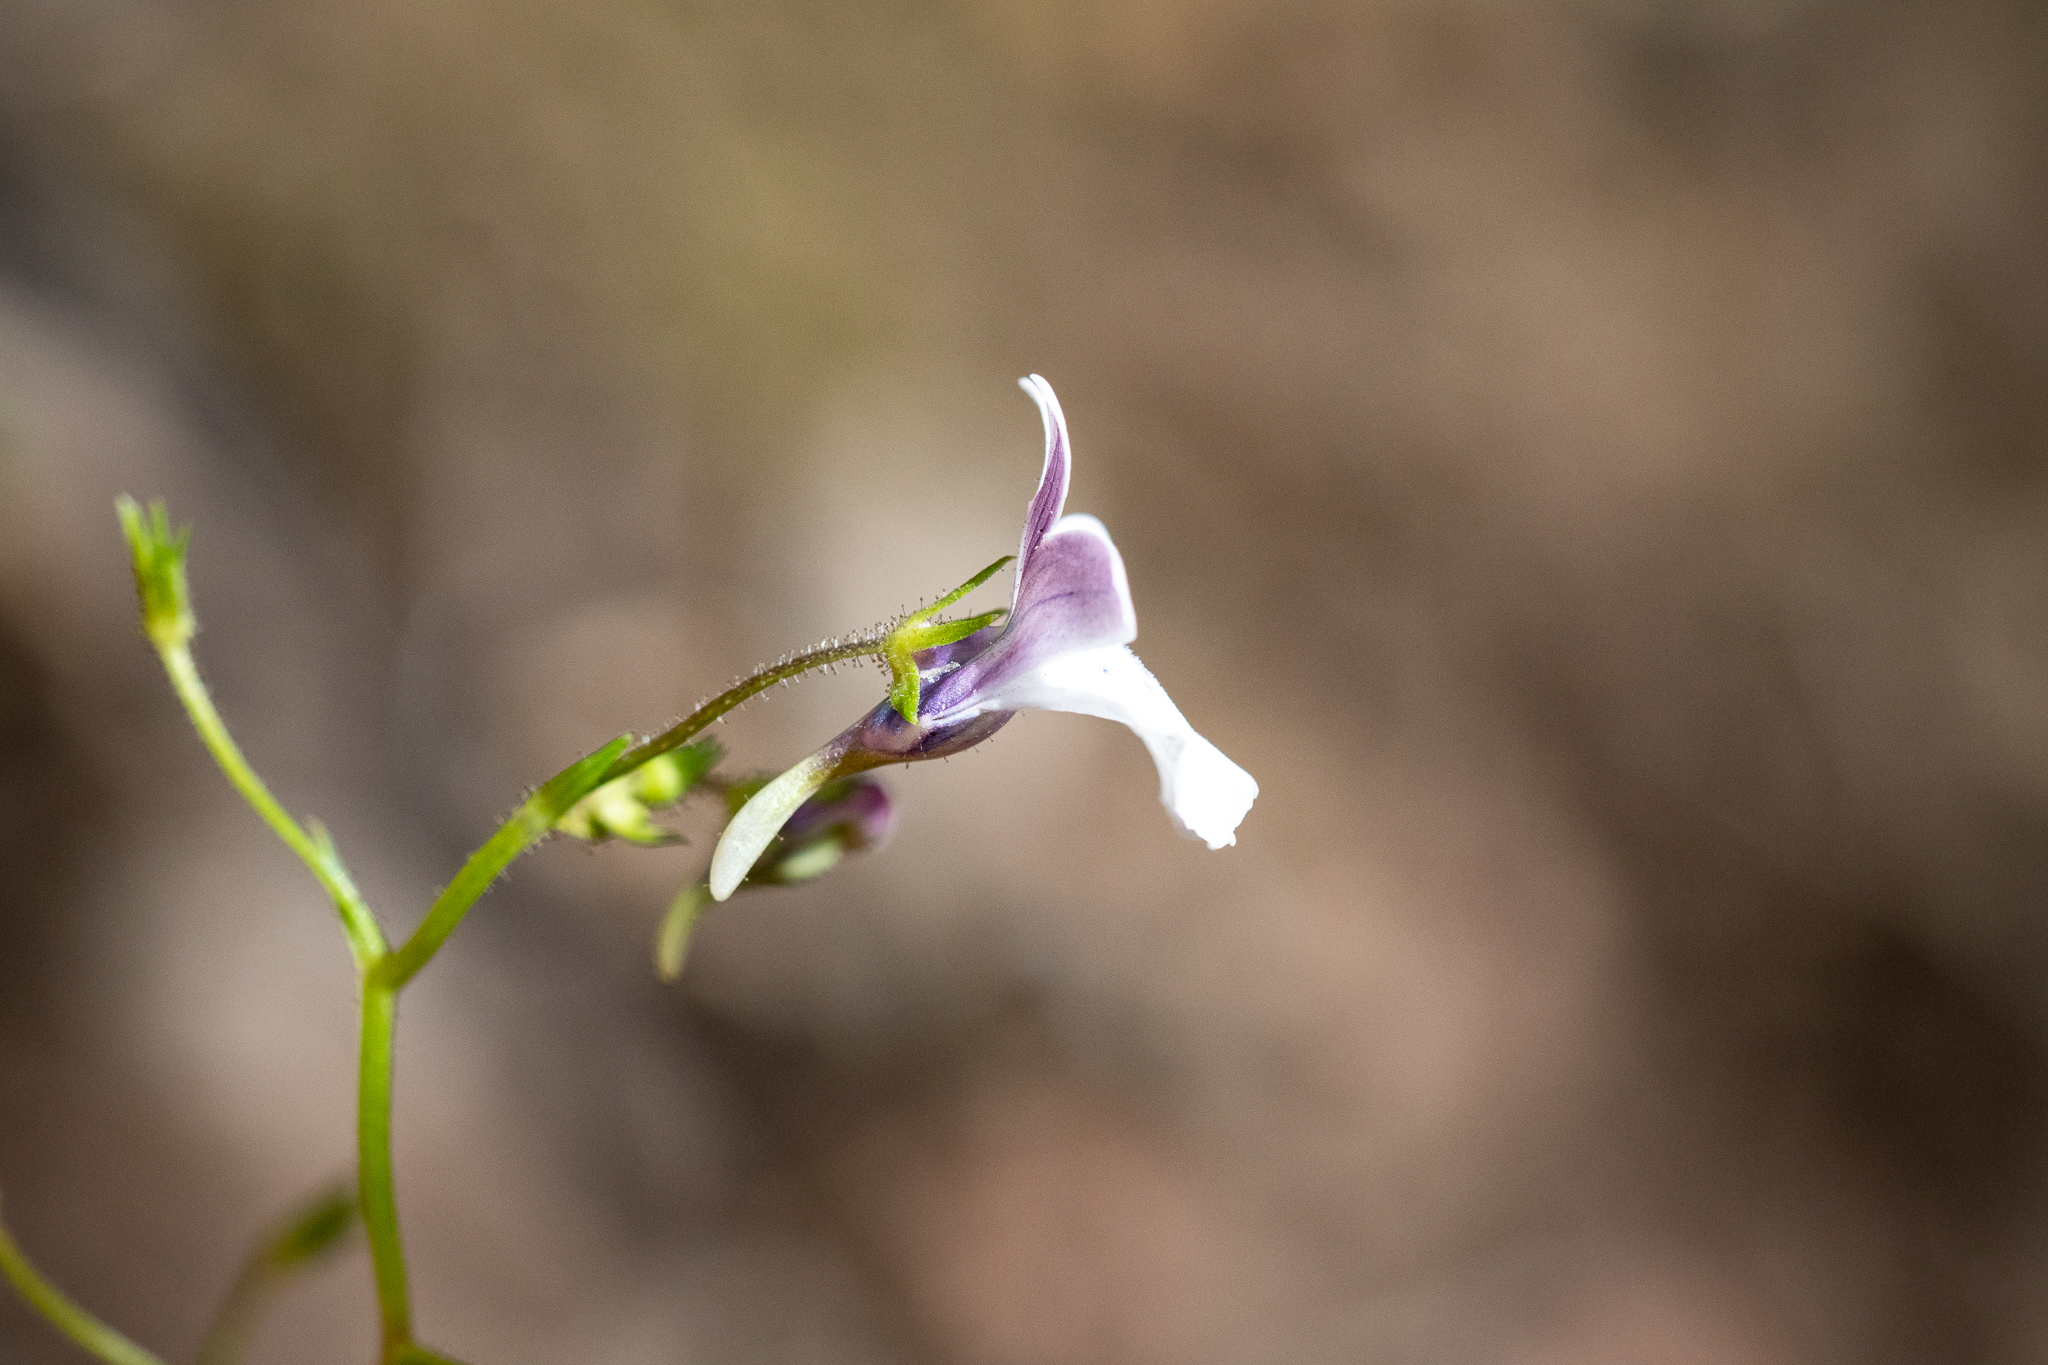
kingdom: Plantae
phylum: Tracheophyta
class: Magnoliopsida
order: Lamiales
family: Scrophulariaceae
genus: Nemesia
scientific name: Nemesia diffusa
